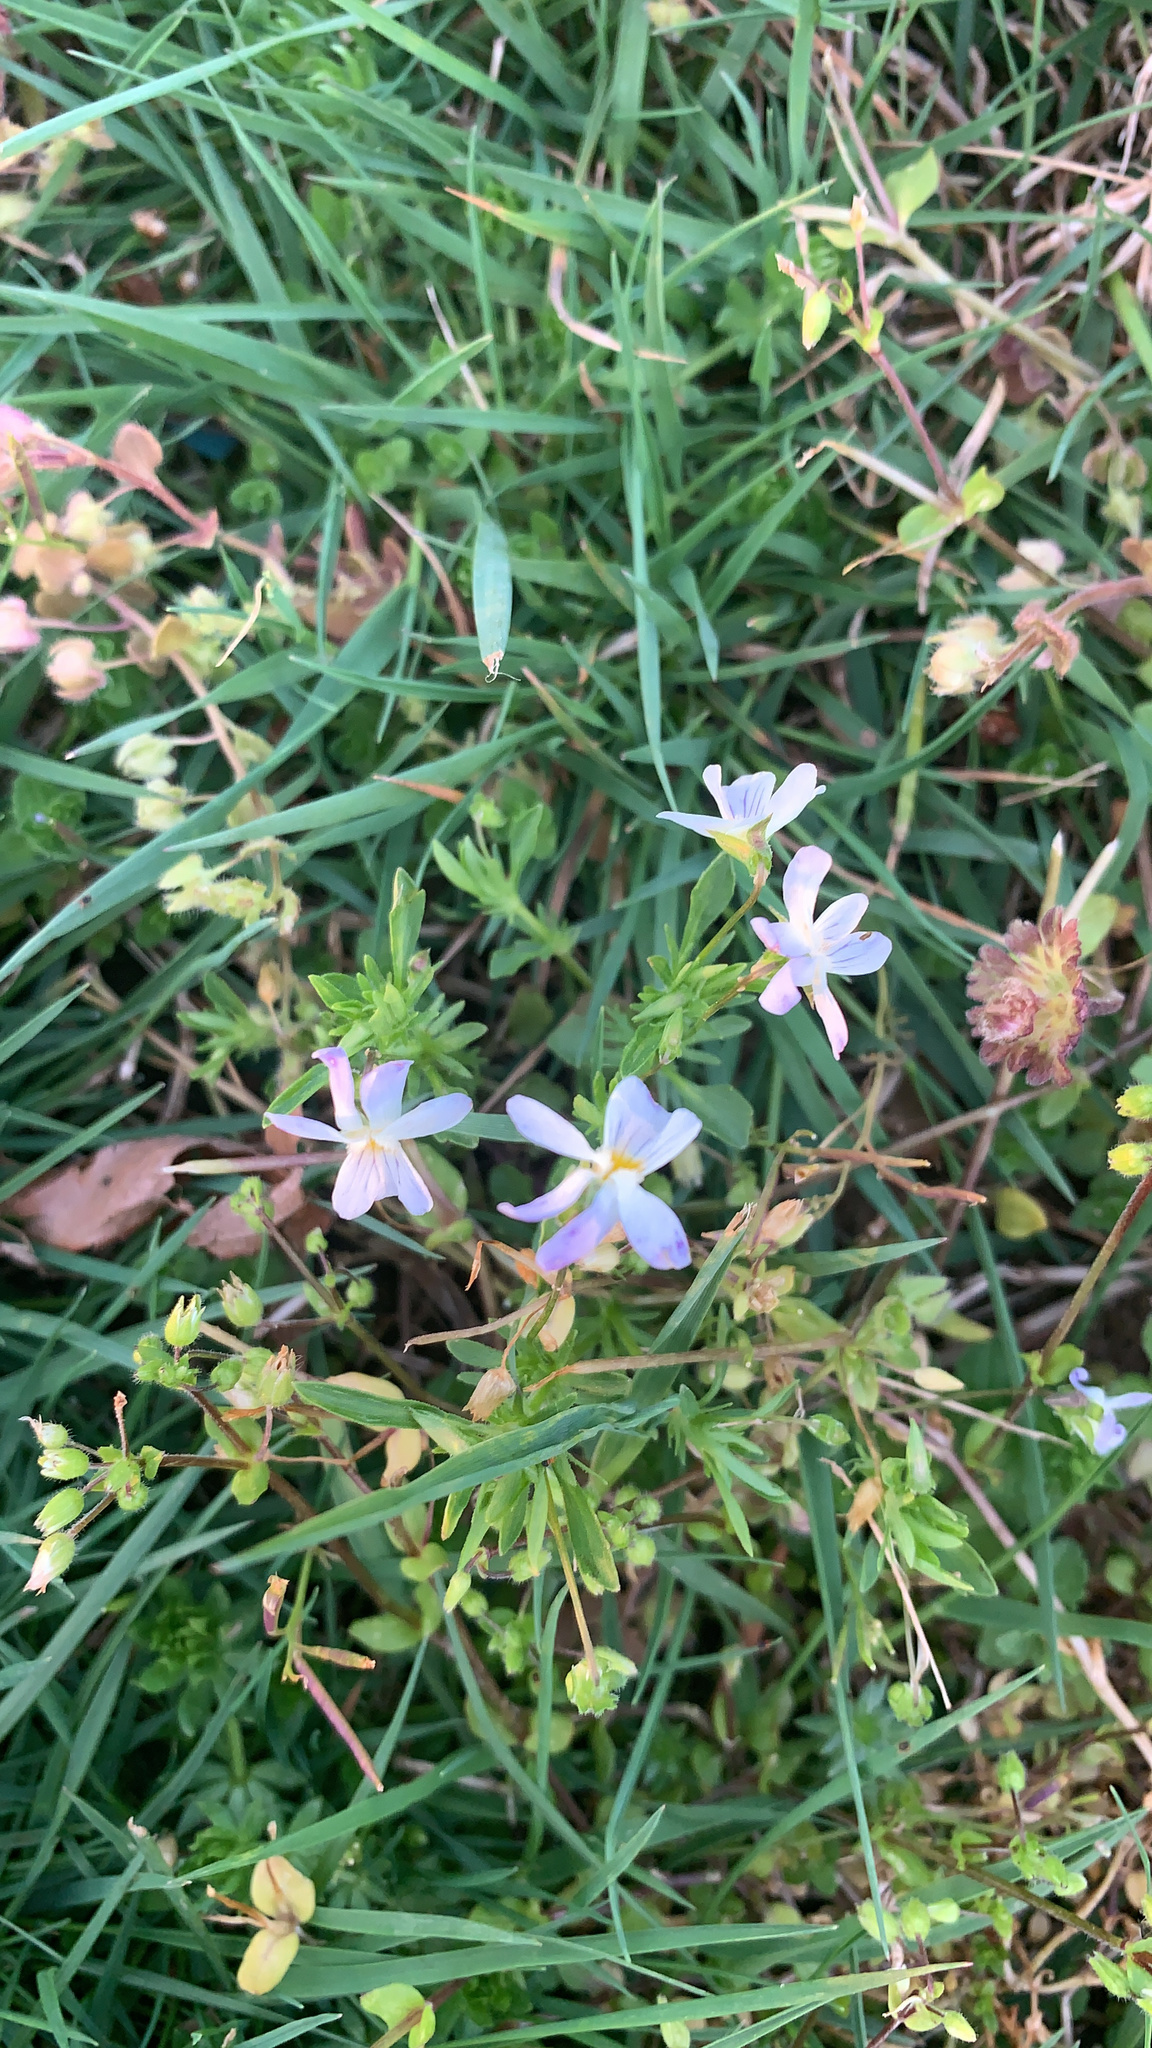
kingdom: Plantae
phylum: Tracheophyta
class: Magnoliopsida
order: Malpighiales
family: Violaceae
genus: Viola
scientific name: Viola rafinesquei
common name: American field pansy
